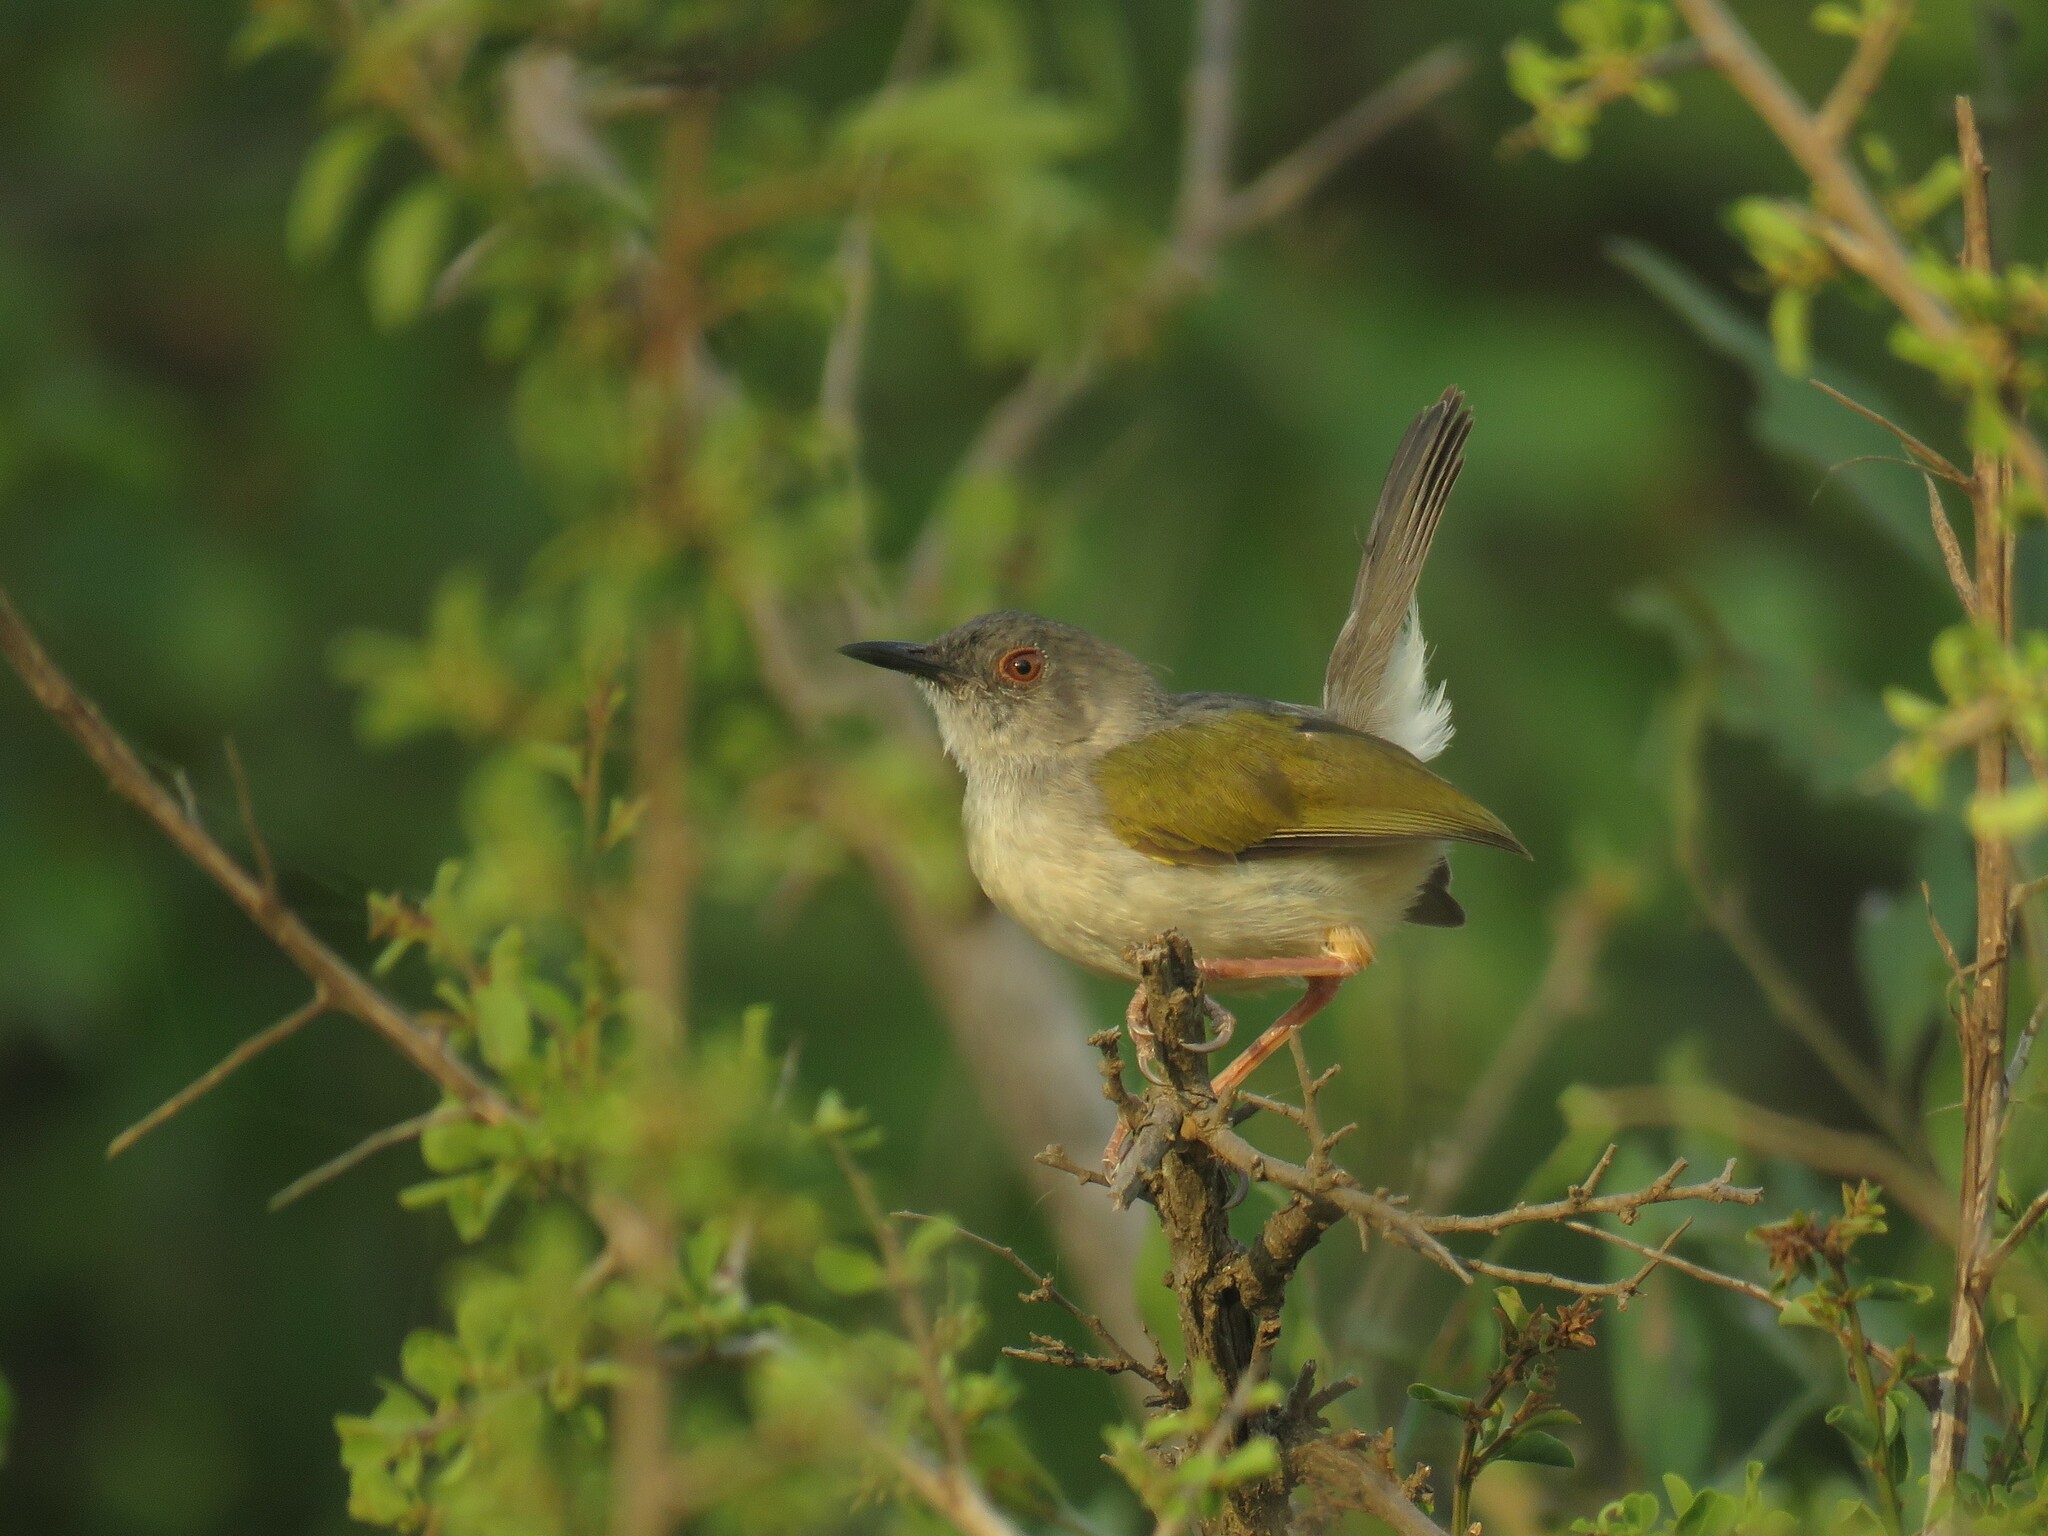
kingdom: Animalia
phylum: Chordata
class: Aves
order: Passeriformes
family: Cisticolidae
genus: Camaroptera
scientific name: Camaroptera brachyura
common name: Green-backed camaroptera
